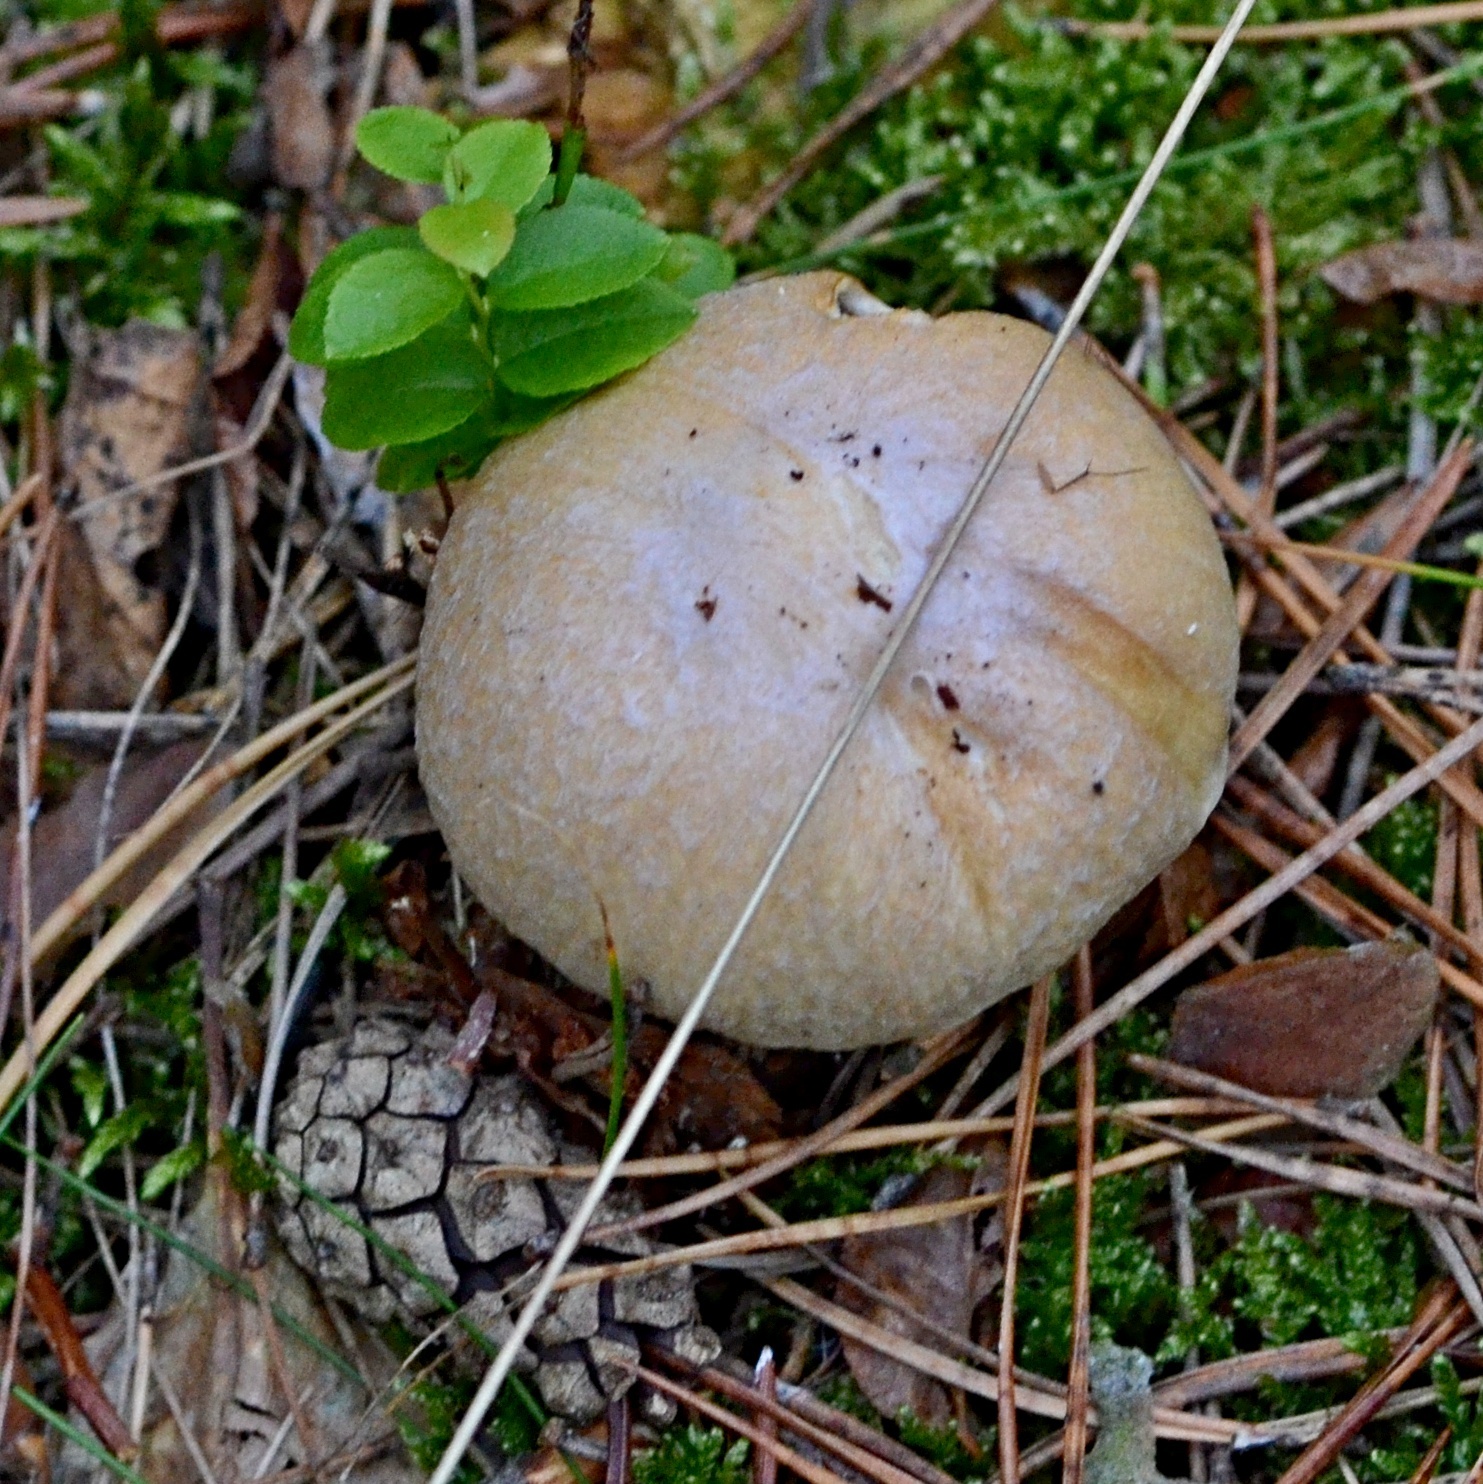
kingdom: Fungi
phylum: Basidiomycota
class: Agaricomycetes
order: Agaricales
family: Cortinariaceae
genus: Cortinarius
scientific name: Cortinarius caperatus
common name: The gypsy
